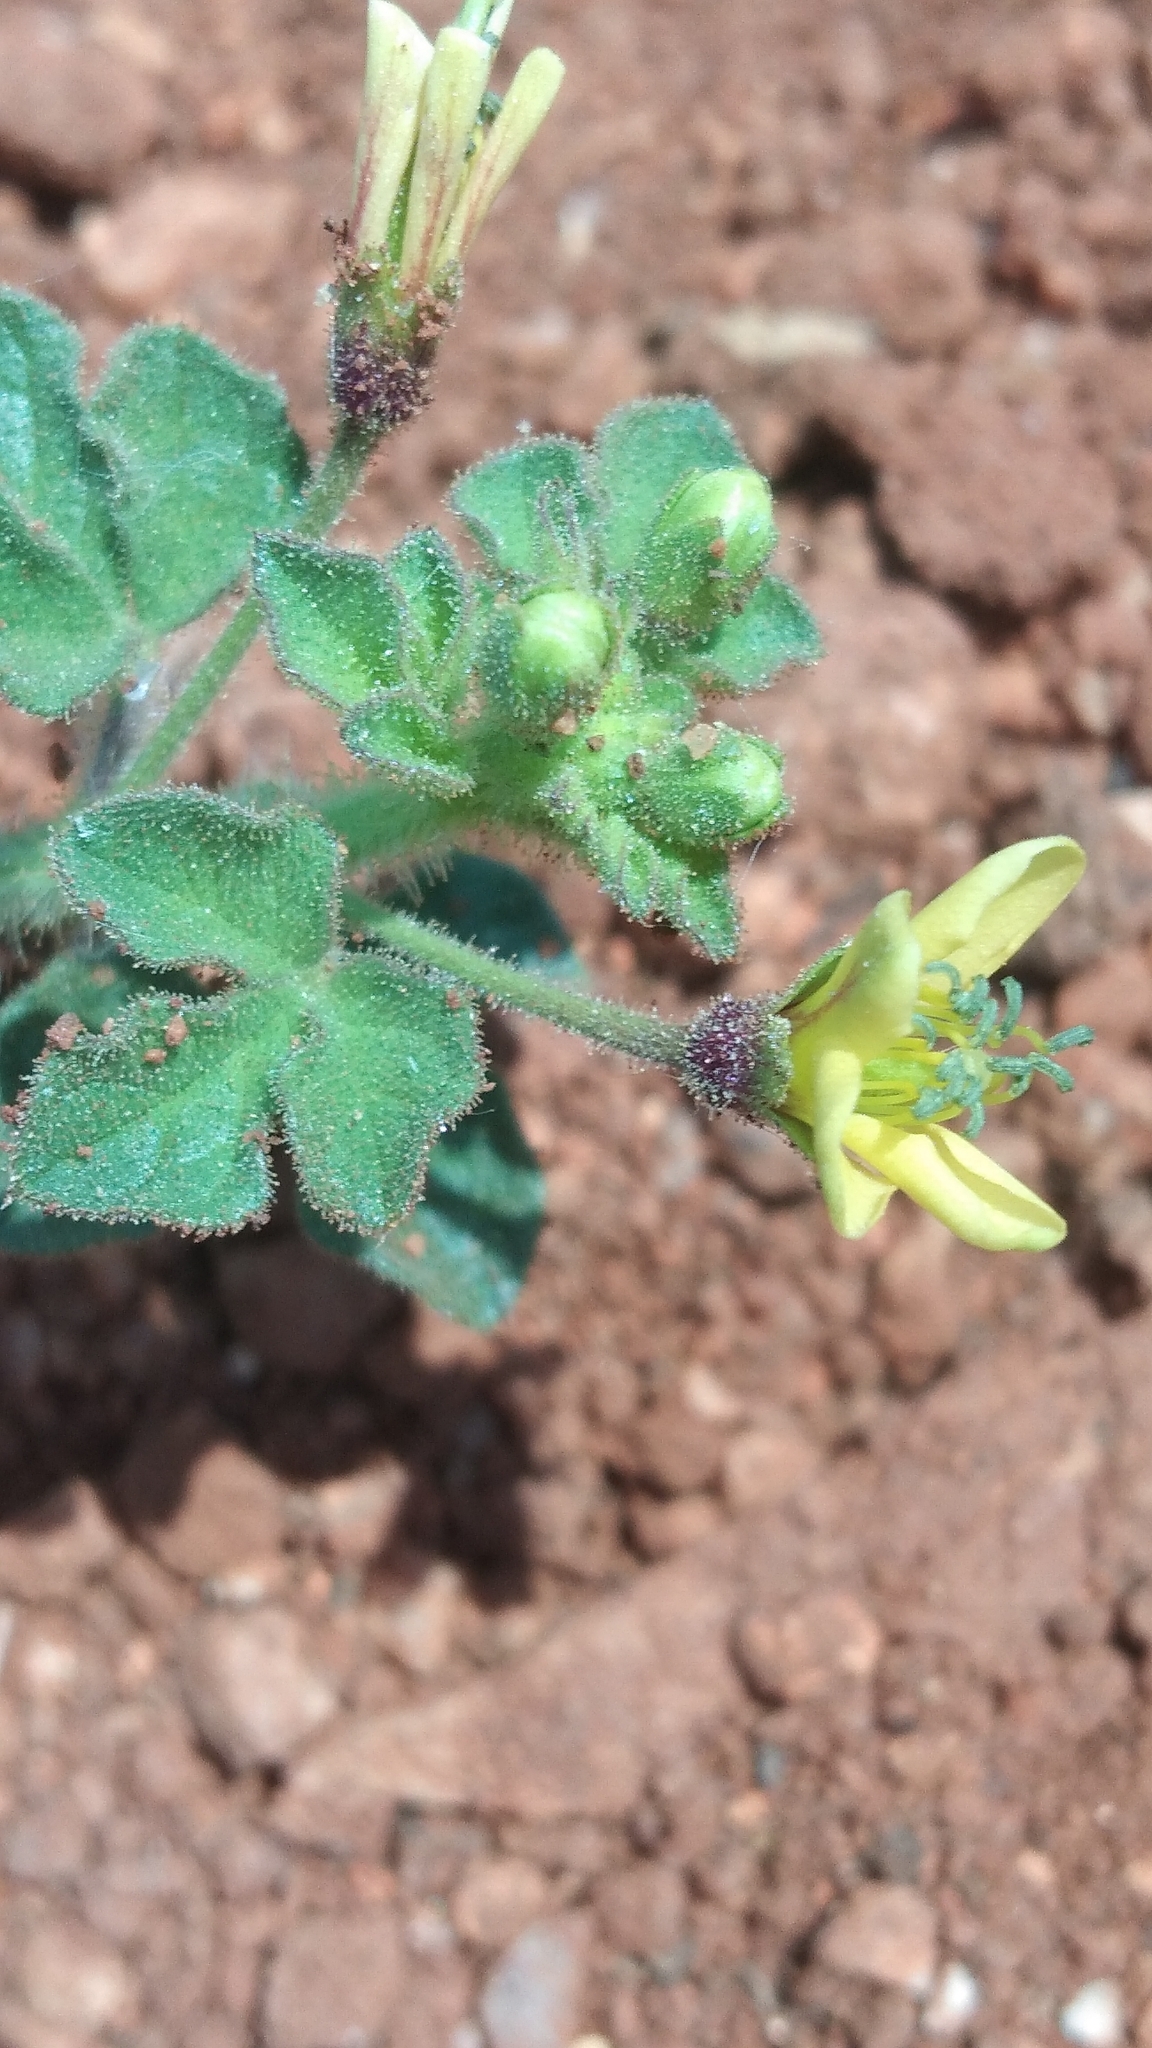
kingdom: Plantae
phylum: Tracheophyta
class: Magnoliopsida
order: Brassicales
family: Cleomaceae
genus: Arivela
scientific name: Arivela viscosa
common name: Asian spiderflower
